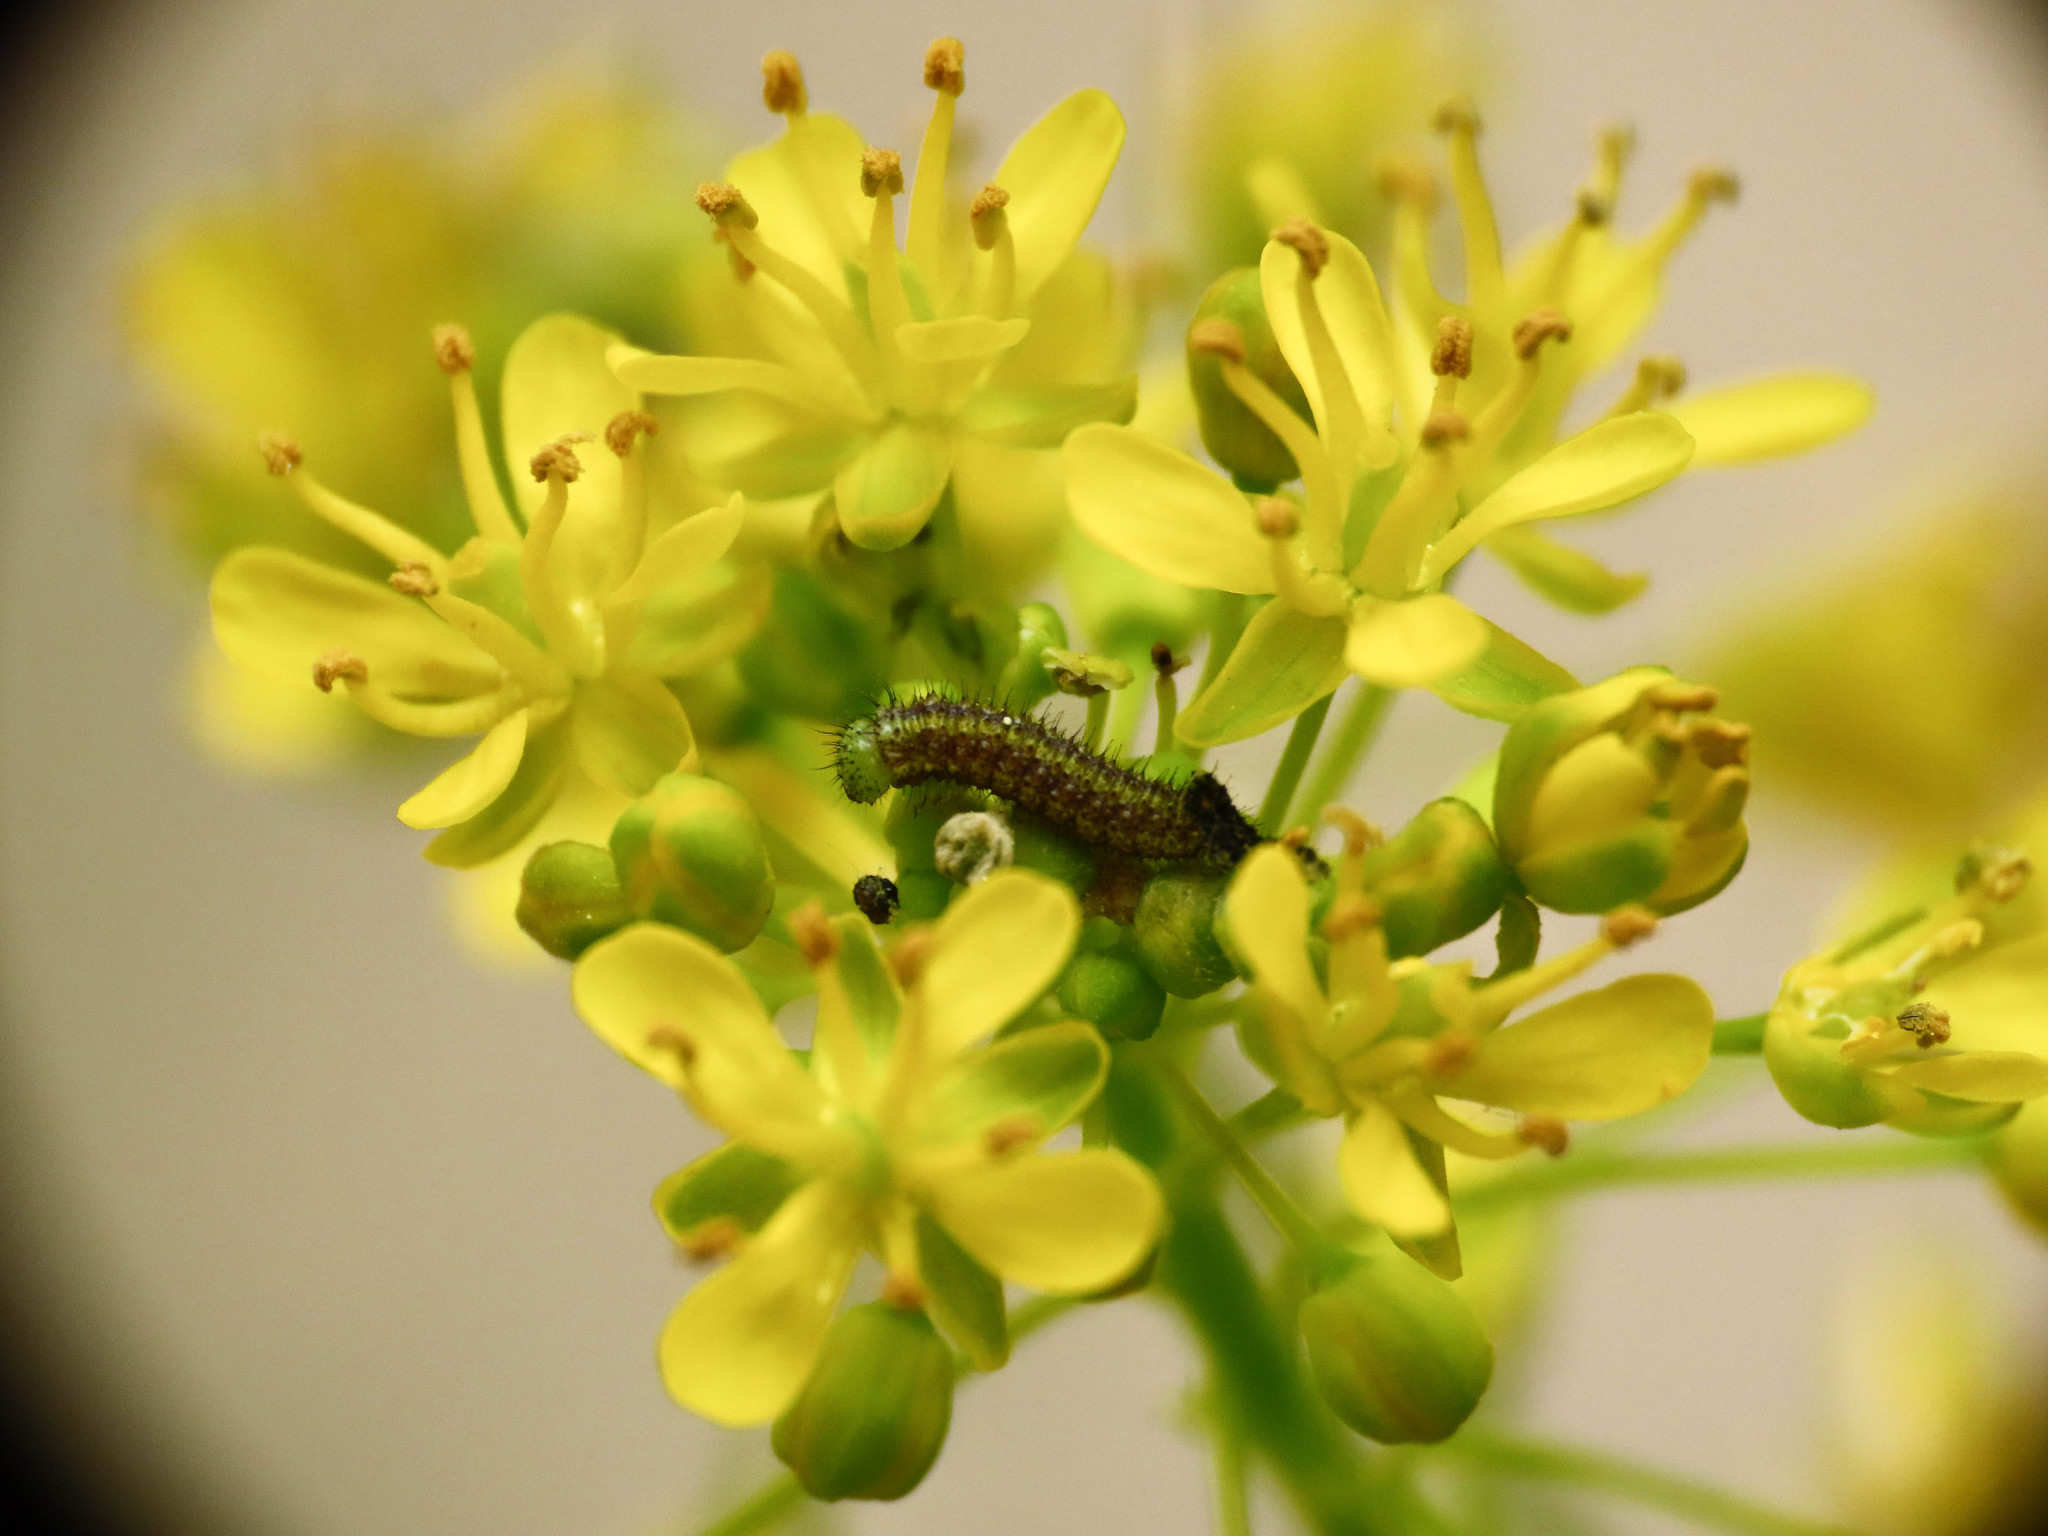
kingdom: Animalia
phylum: Arthropoda
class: Insecta
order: Lepidoptera
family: Pieridae
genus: Pontia
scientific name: Pontia edusa
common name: Eastern bath white
